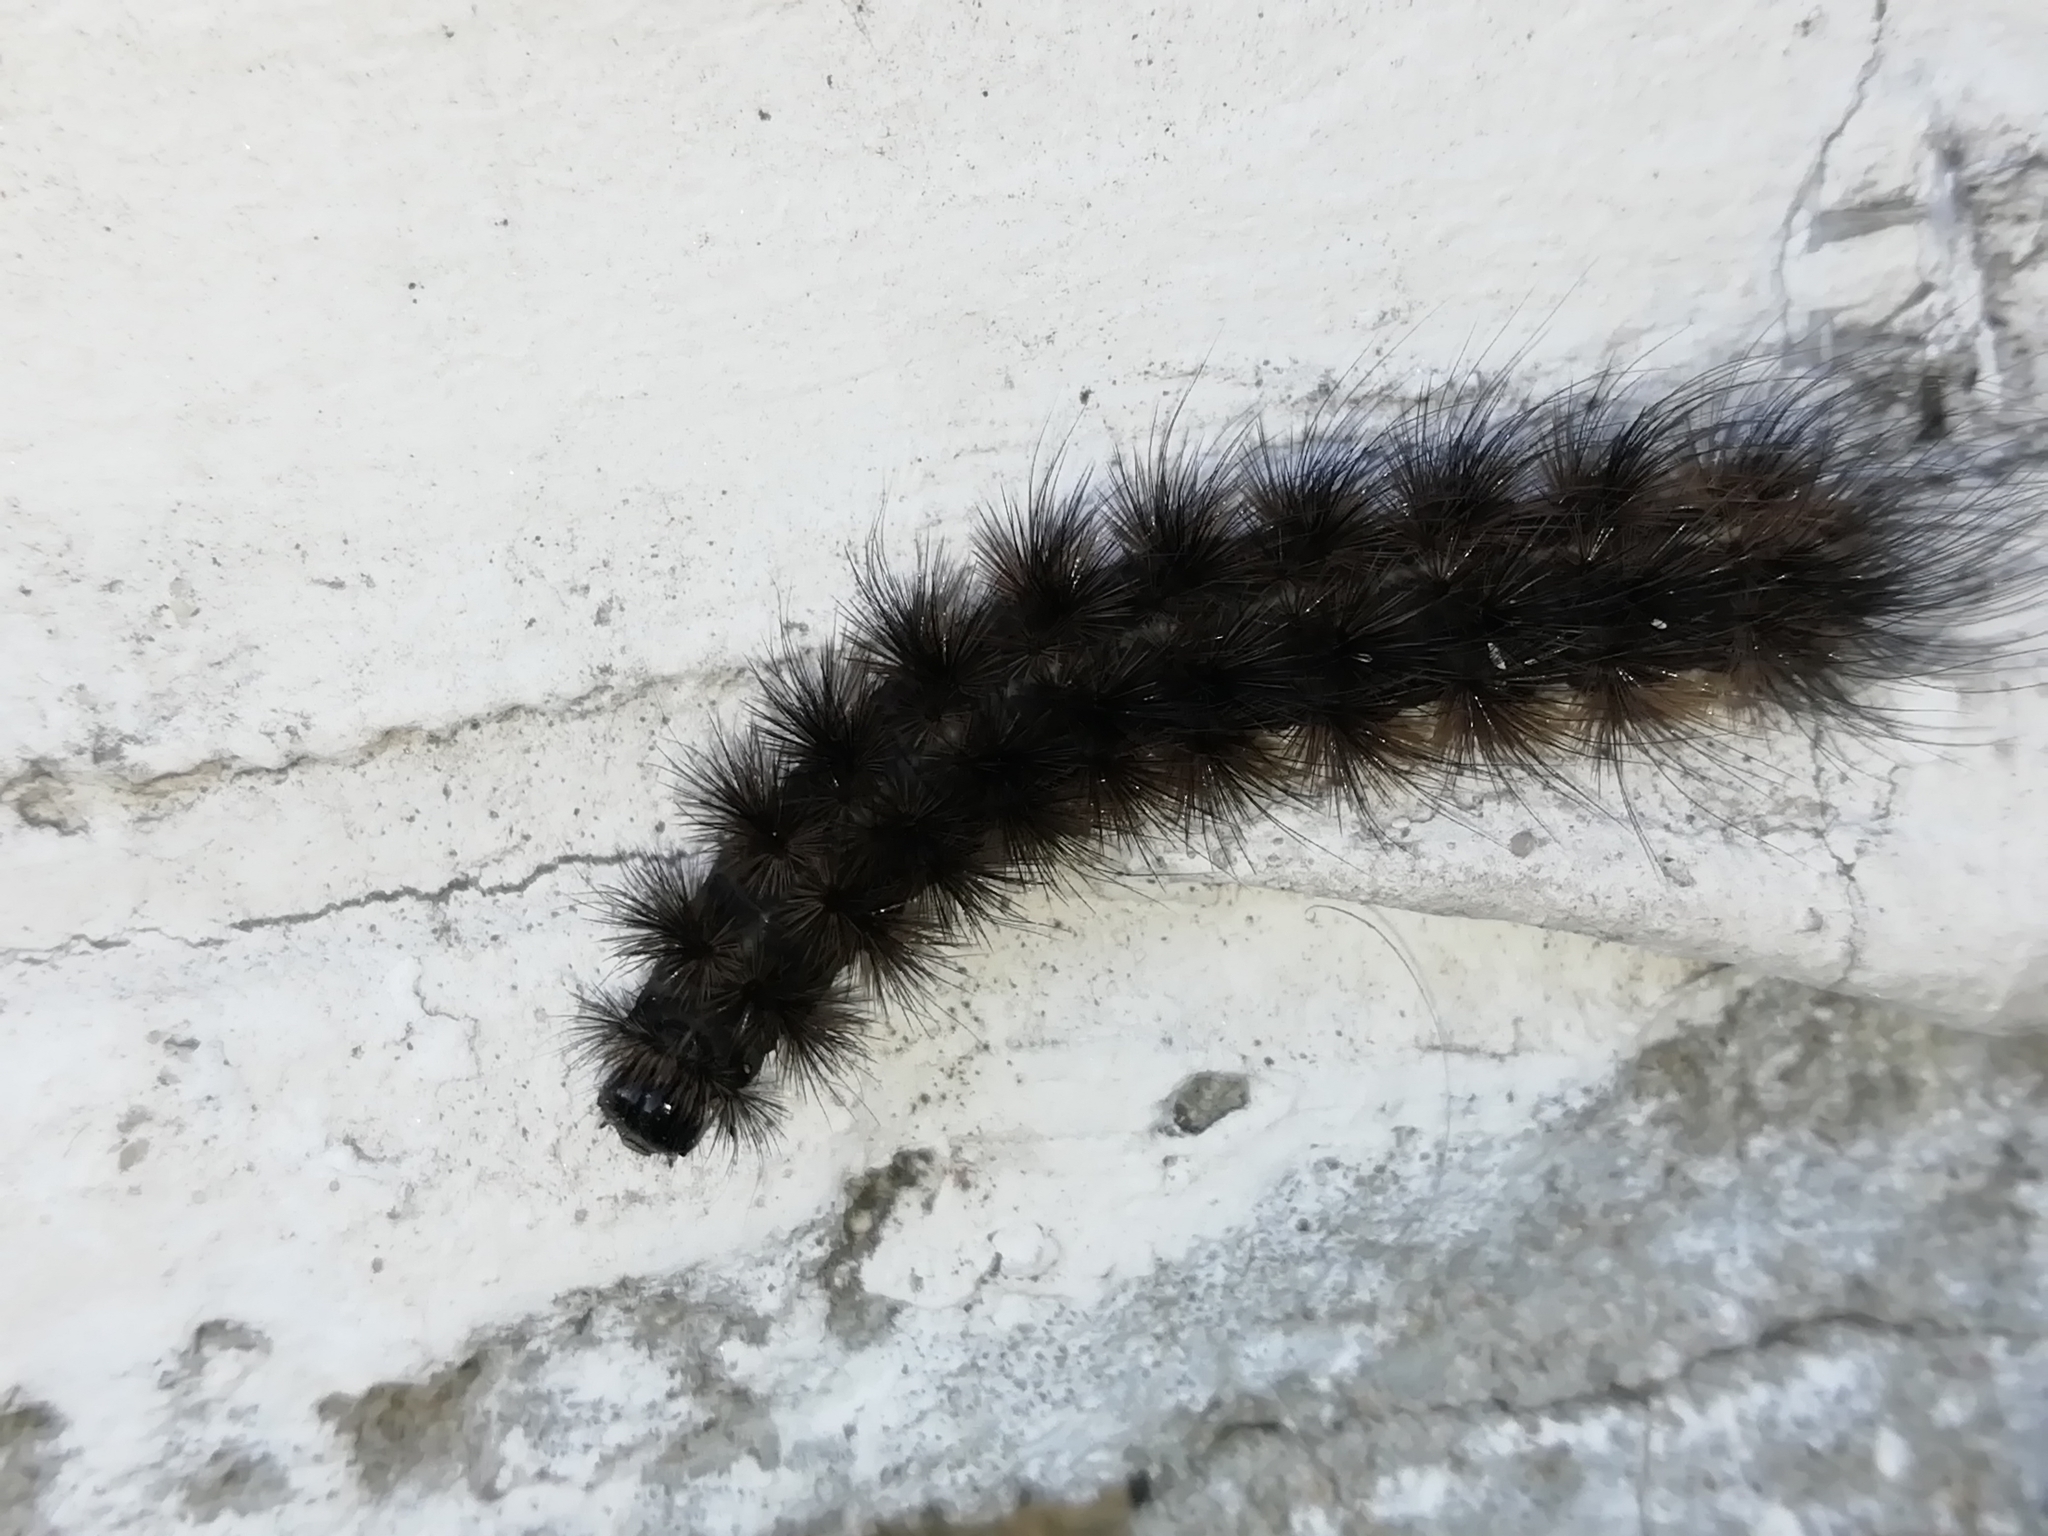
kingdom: Animalia
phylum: Arthropoda
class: Insecta
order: Lepidoptera
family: Erebidae
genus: Phragmatobia
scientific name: Phragmatobia fuliginosa
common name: Ruby tiger
